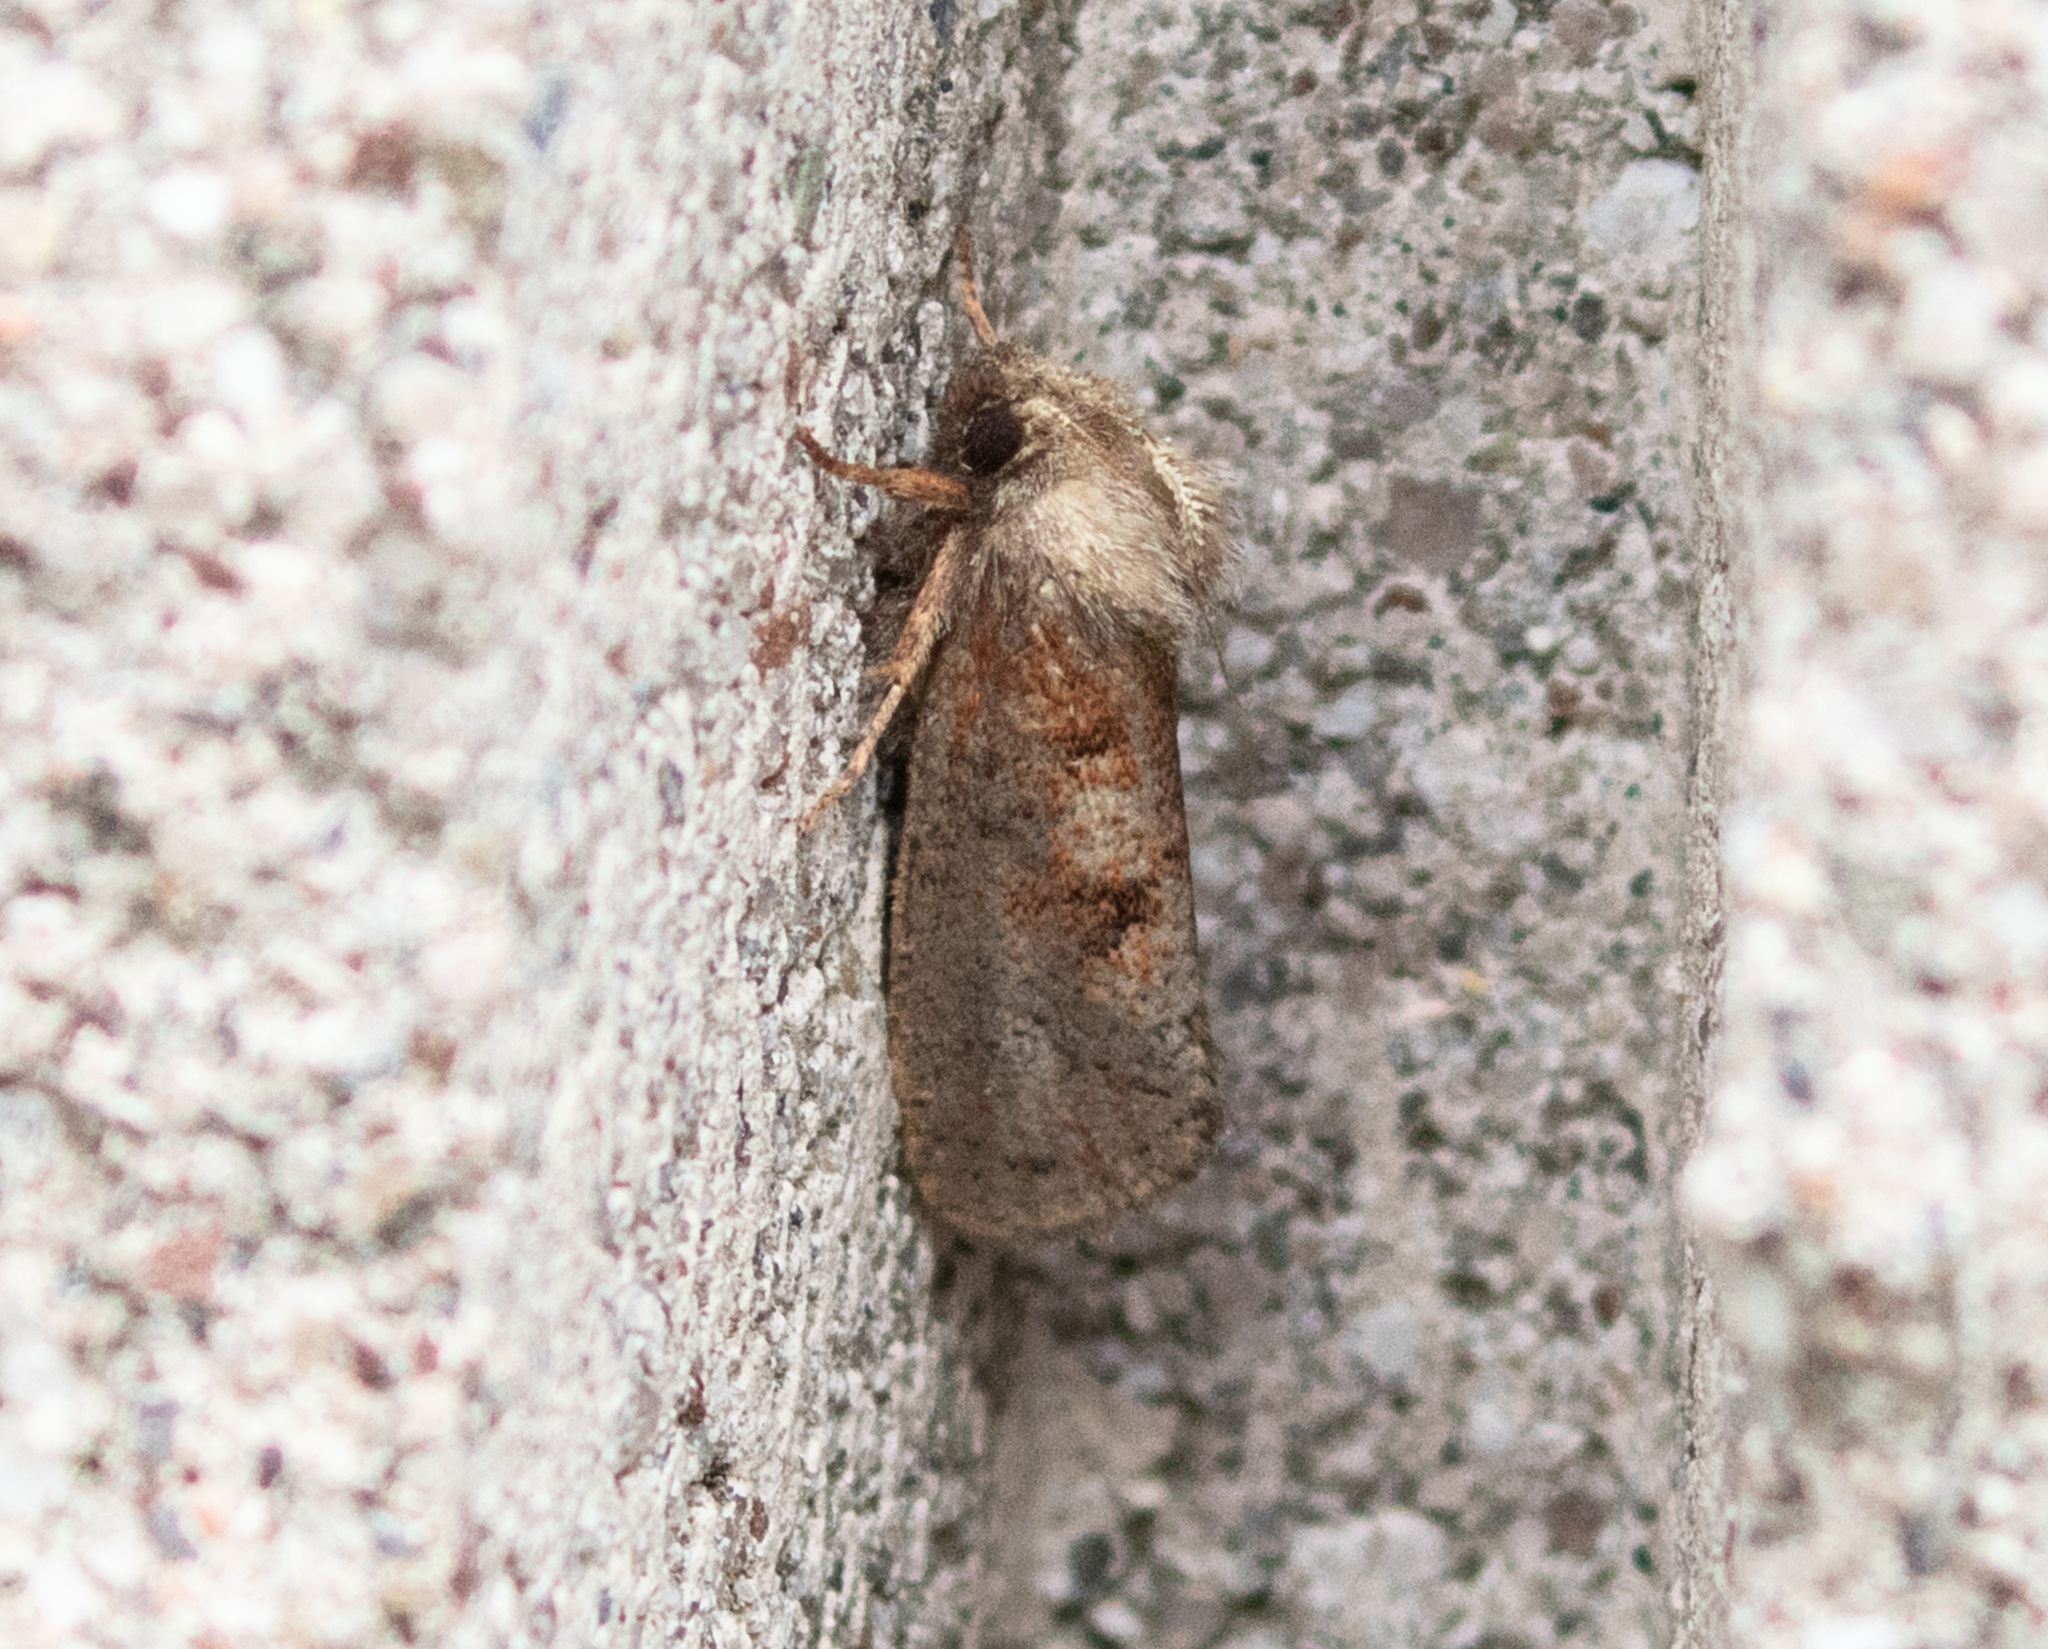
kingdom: Animalia
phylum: Arthropoda
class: Insecta
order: Lepidoptera
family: Tineidae
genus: Acrolophus
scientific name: Acrolophus plumifrontella
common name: Eastern grass tubeworm moth
